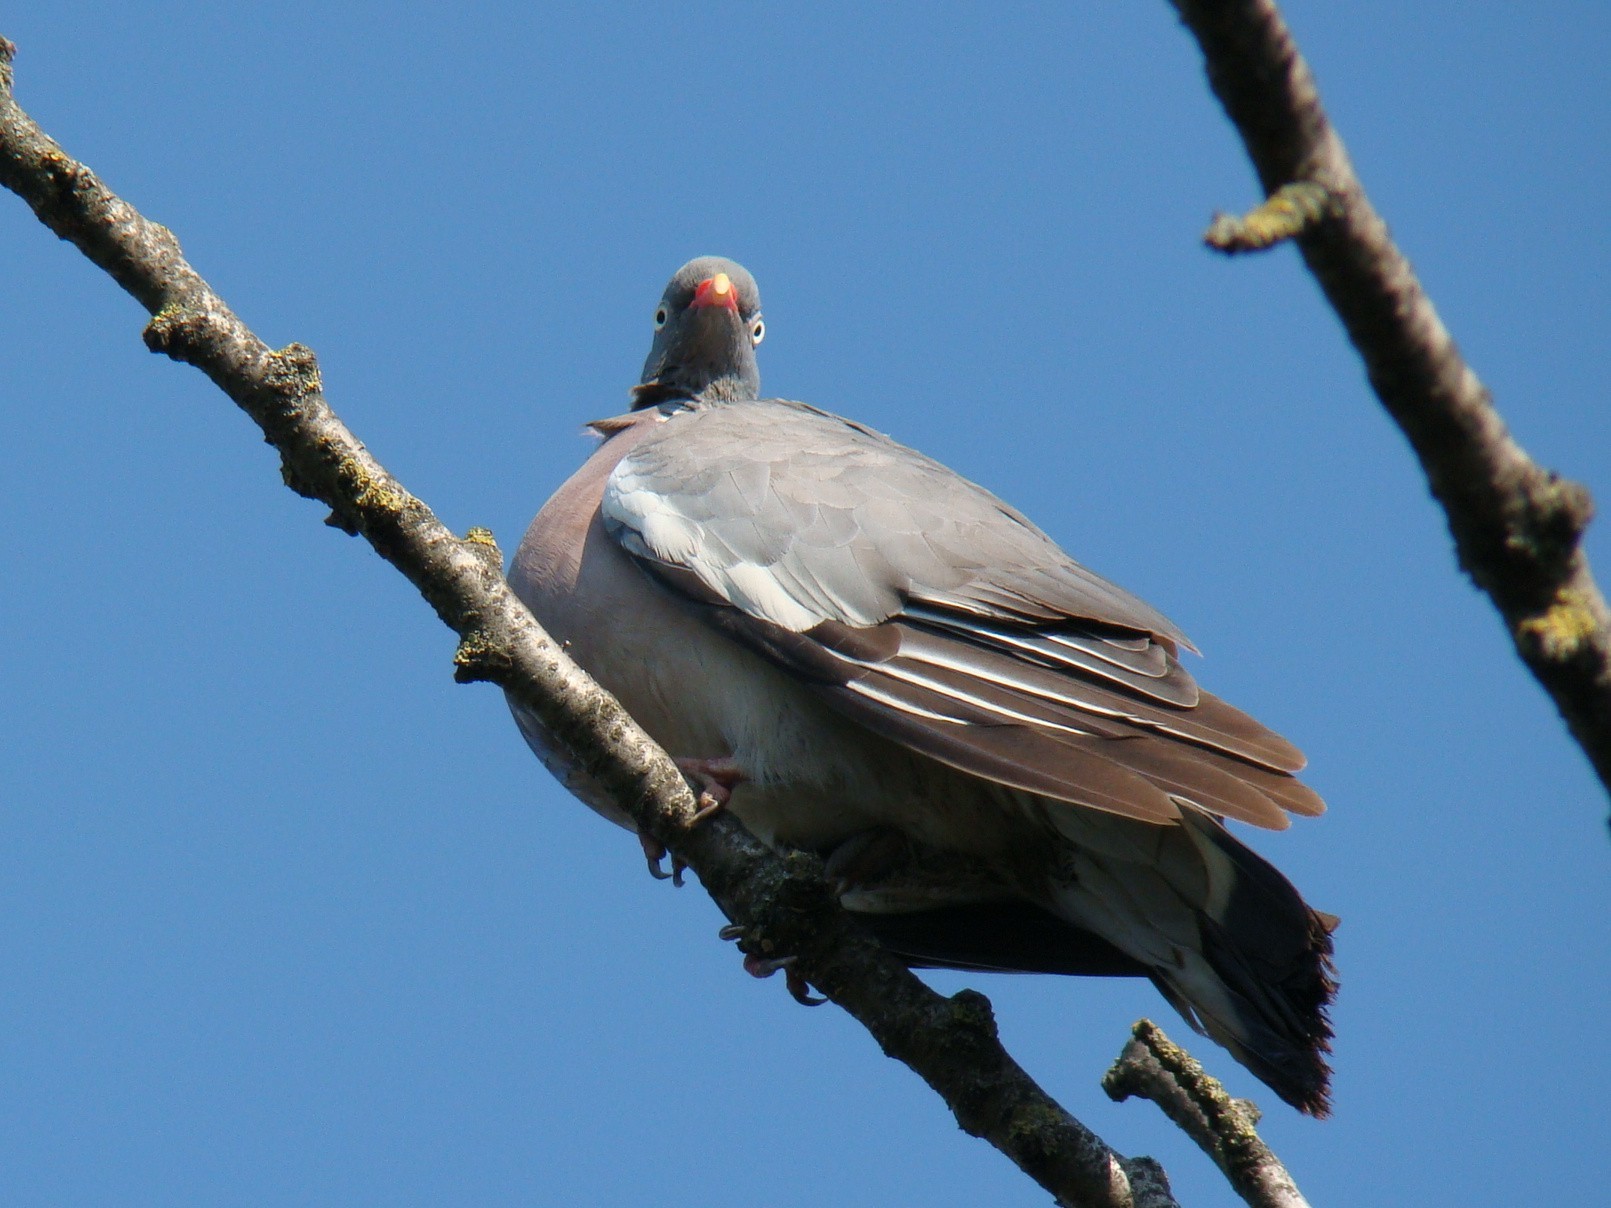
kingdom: Animalia
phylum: Chordata
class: Aves
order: Columbiformes
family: Columbidae
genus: Columba
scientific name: Columba palumbus
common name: Common wood pigeon
